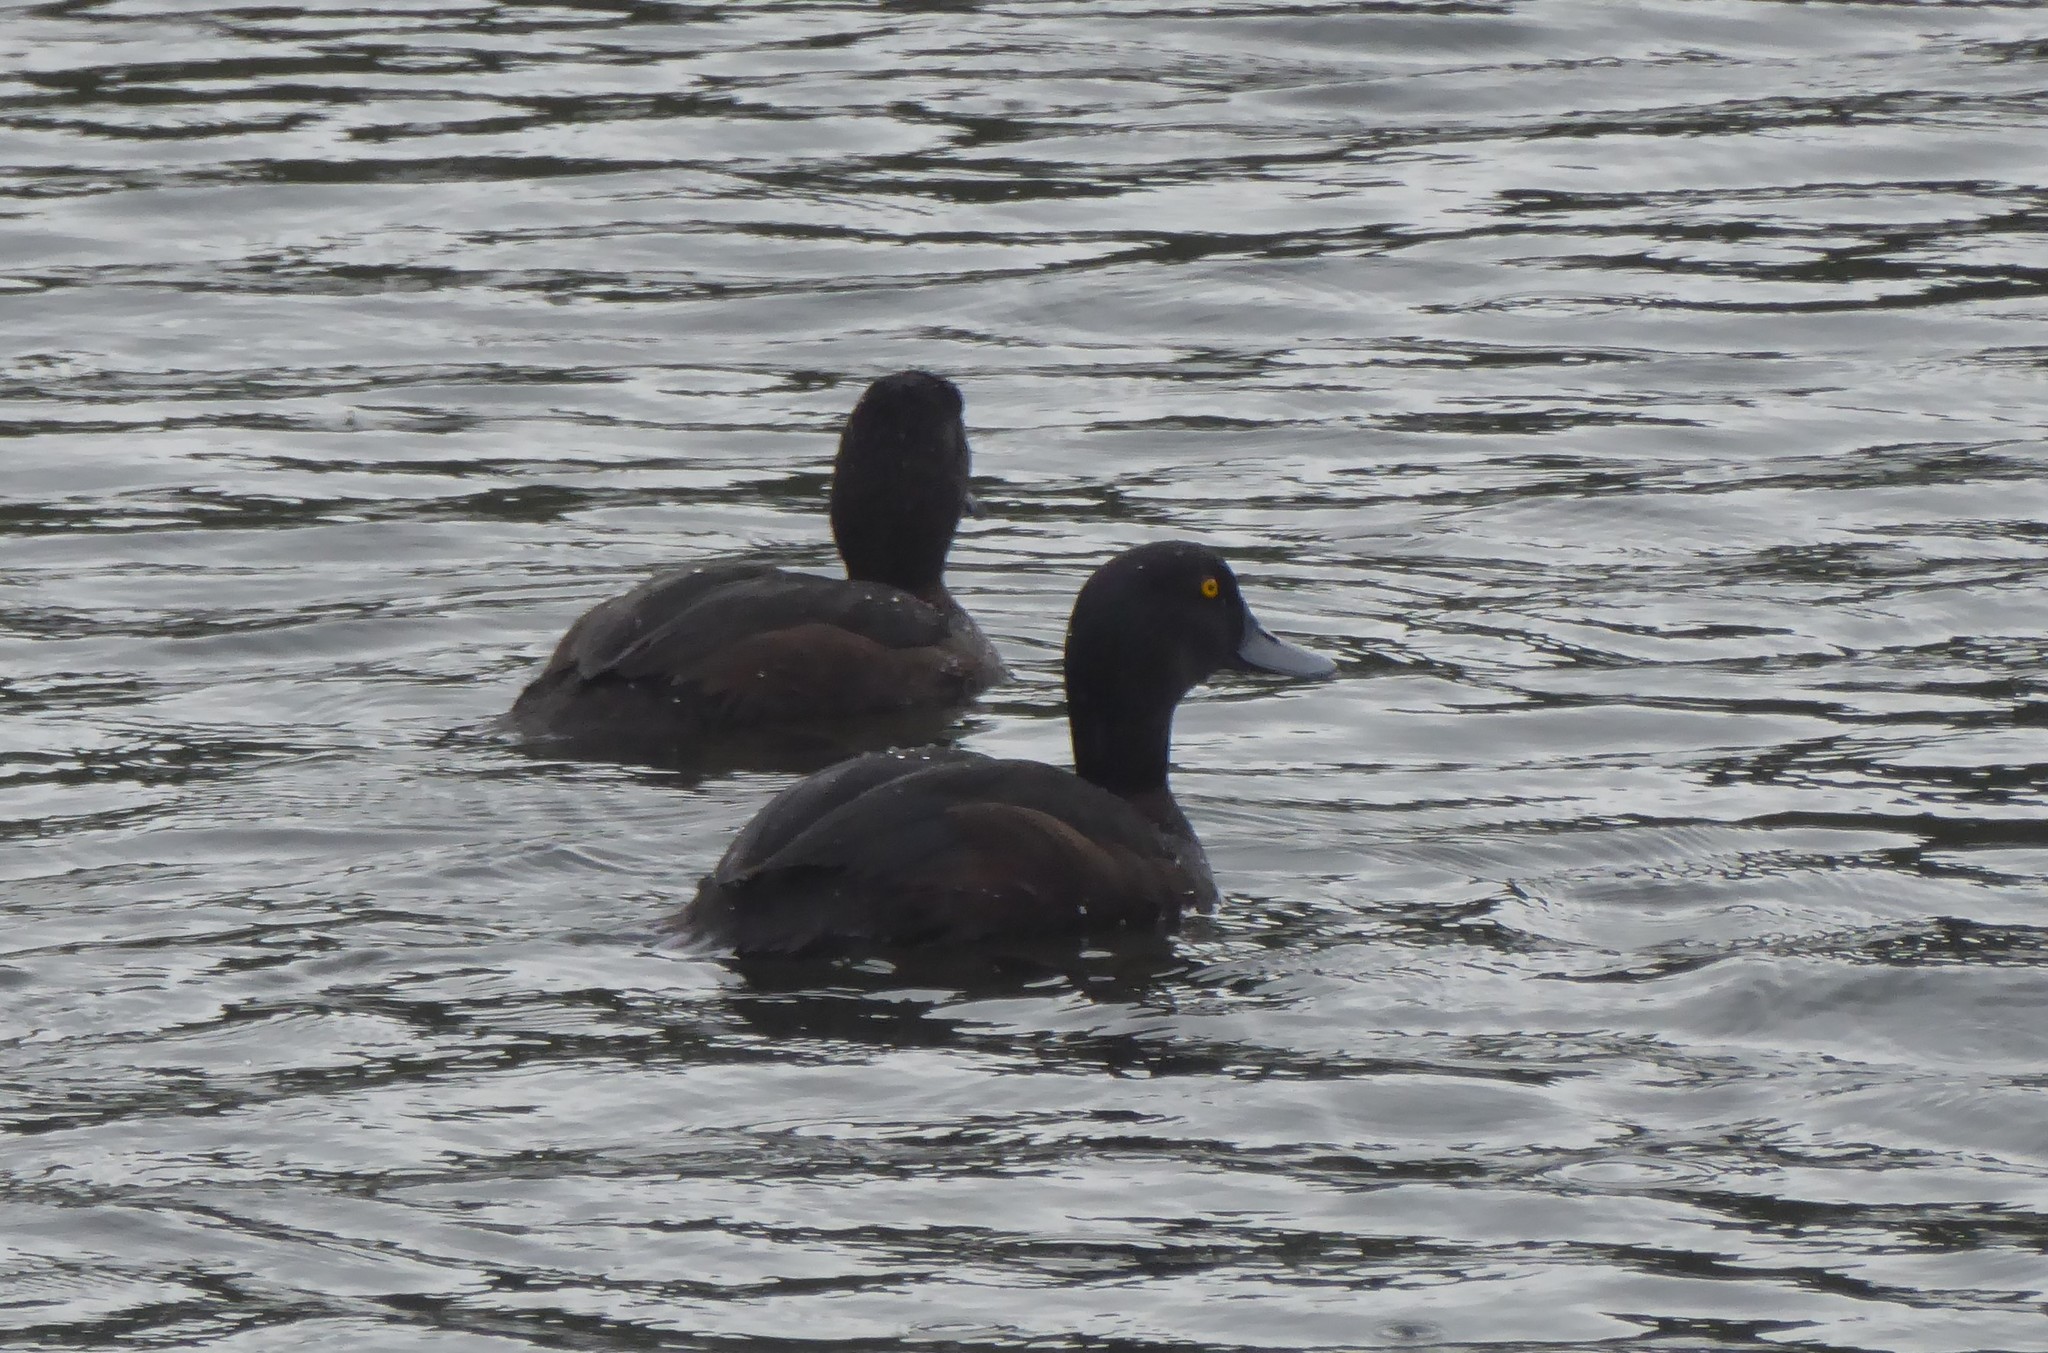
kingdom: Animalia
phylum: Chordata
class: Aves
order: Anseriformes
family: Anatidae
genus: Aythya
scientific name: Aythya novaeseelandiae
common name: New zealand scaup
